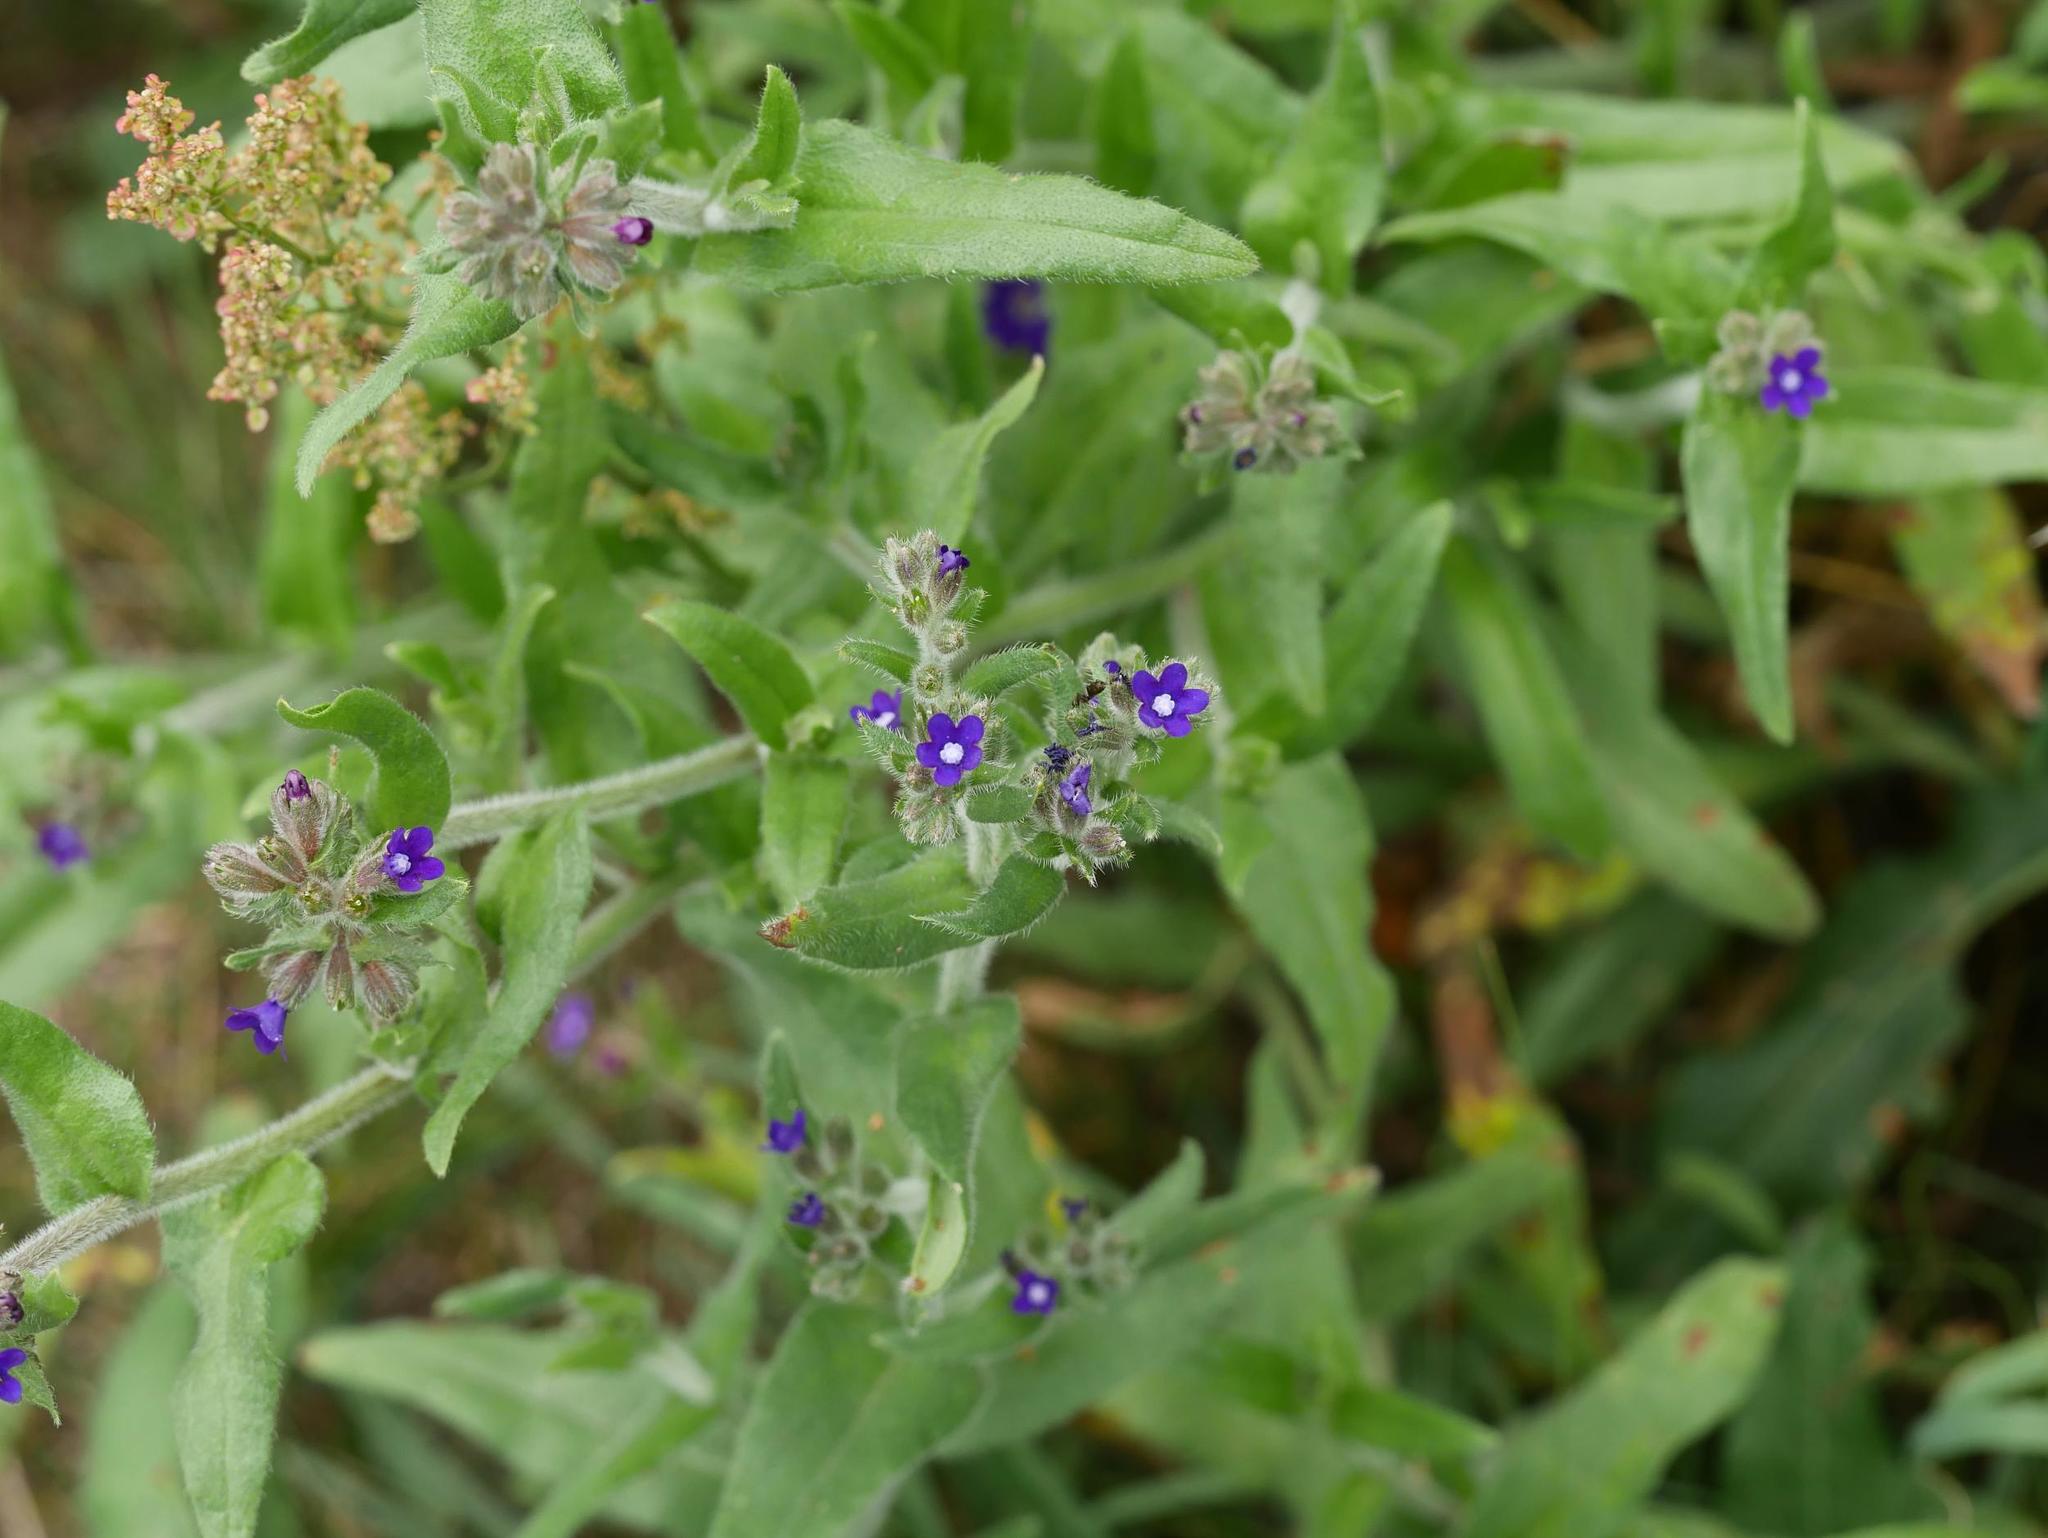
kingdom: Plantae
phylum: Tracheophyta
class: Magnoliopsida
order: Boraginales
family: Boraginaceae
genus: Anchusa
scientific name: Anchusa officinalis
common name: Alkanet
